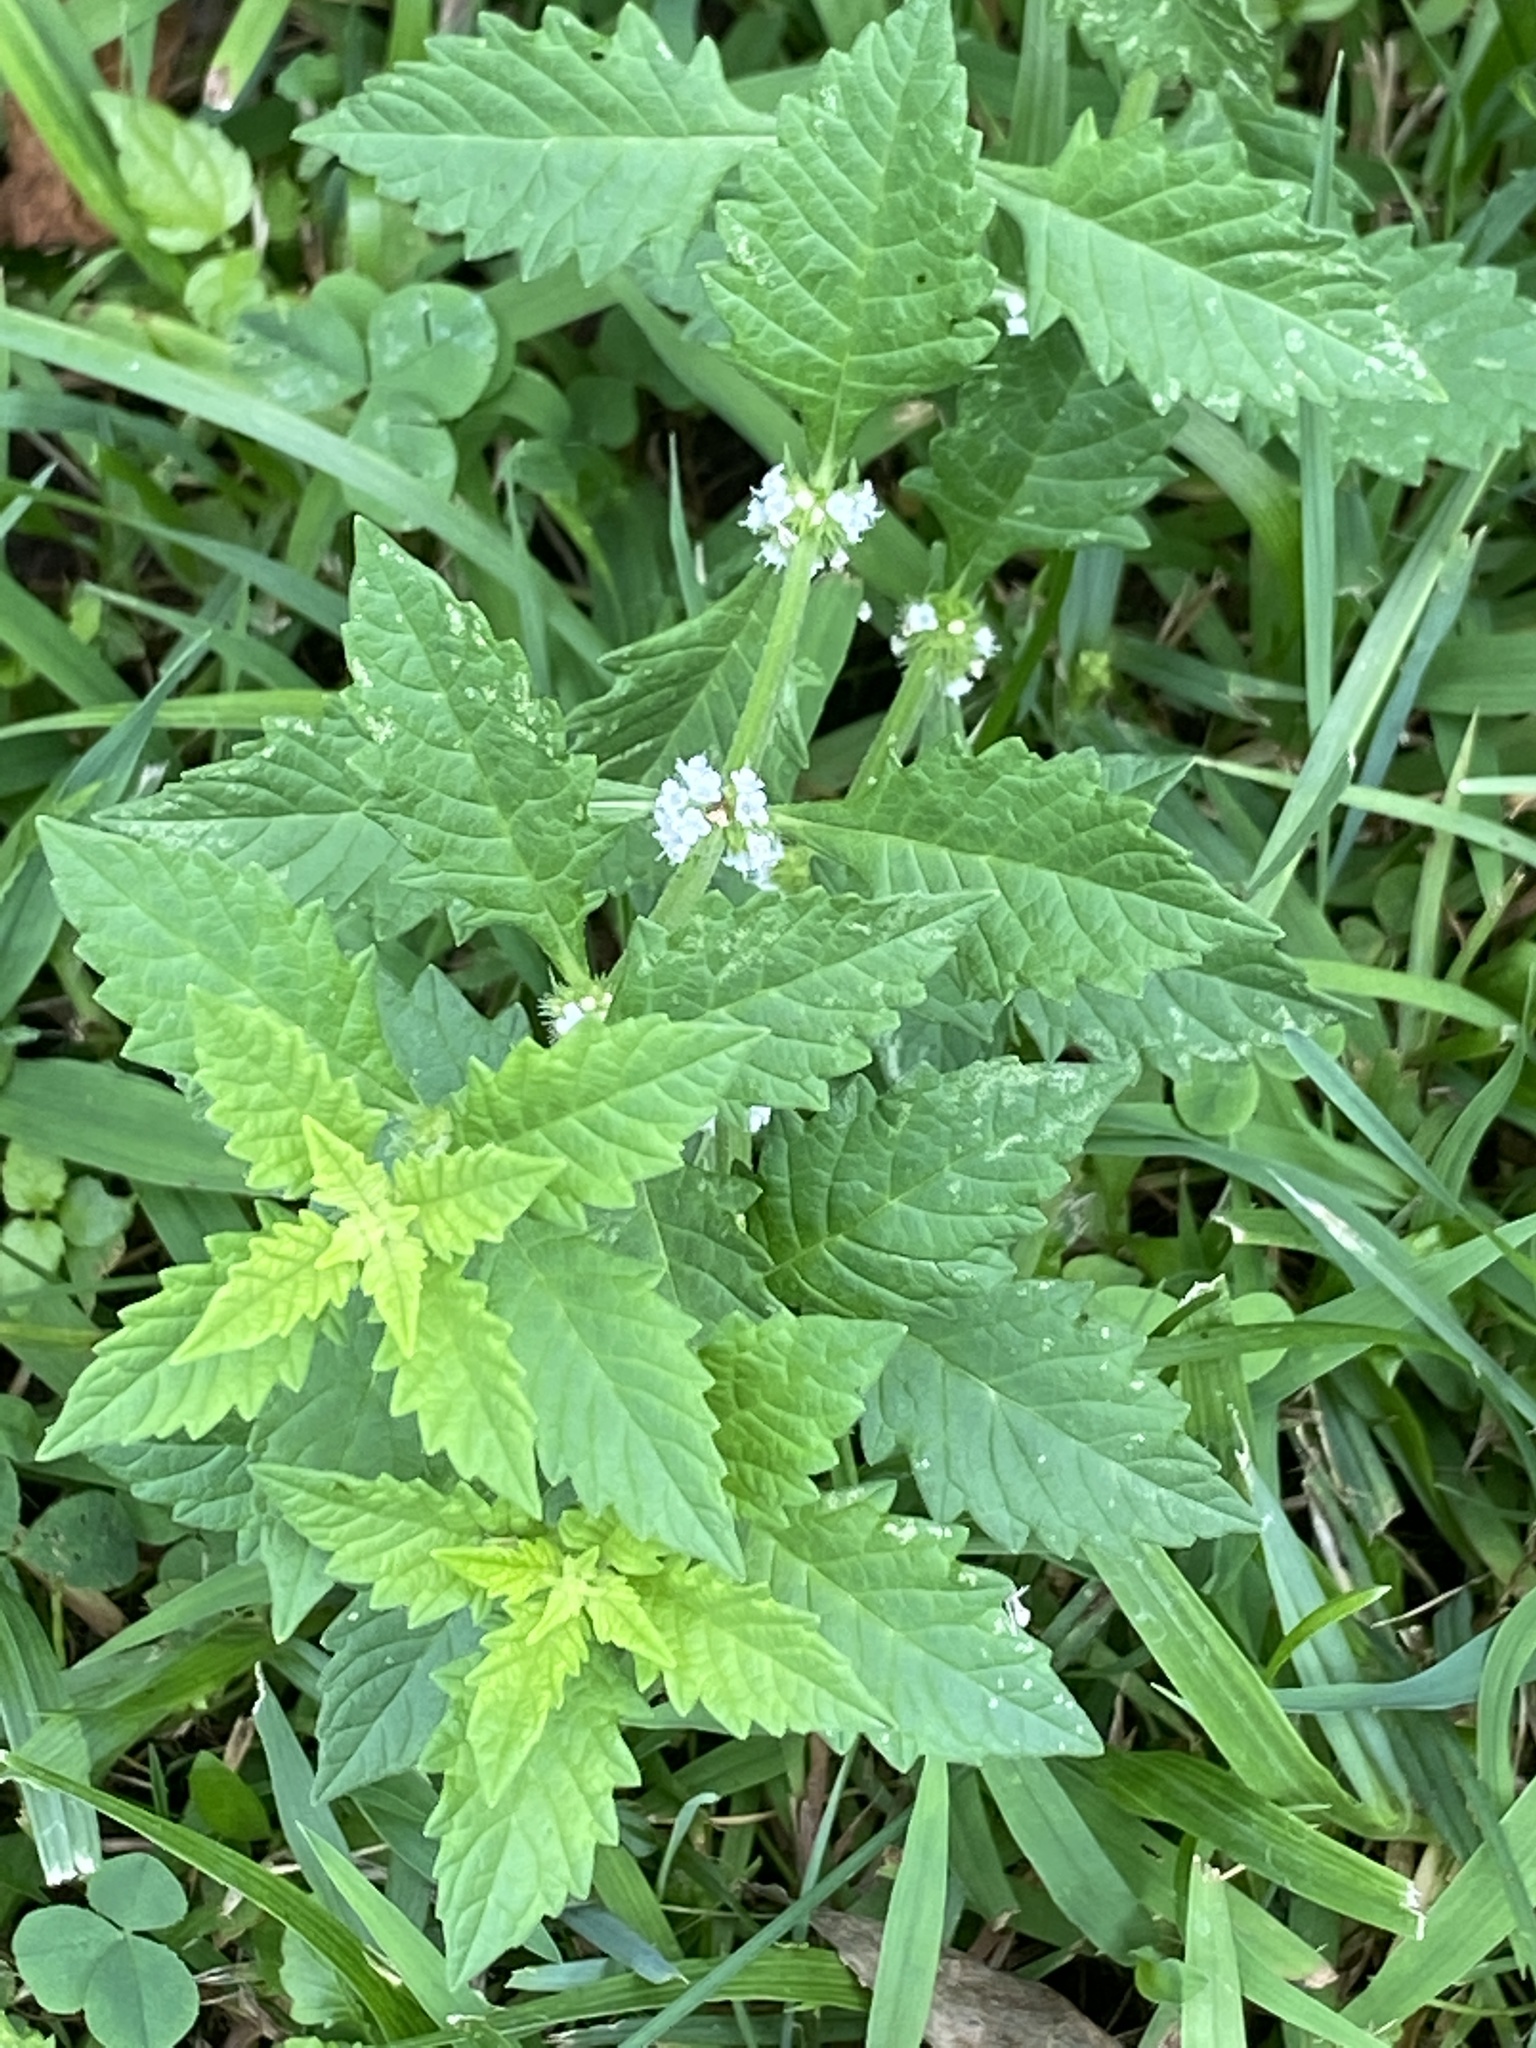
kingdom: Plantae
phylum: Tracheophyta
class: Magnoliopsida
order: Lamiales
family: Lamiaceae
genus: Lycopus
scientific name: Lycopus europaeus
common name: European bugleweed
